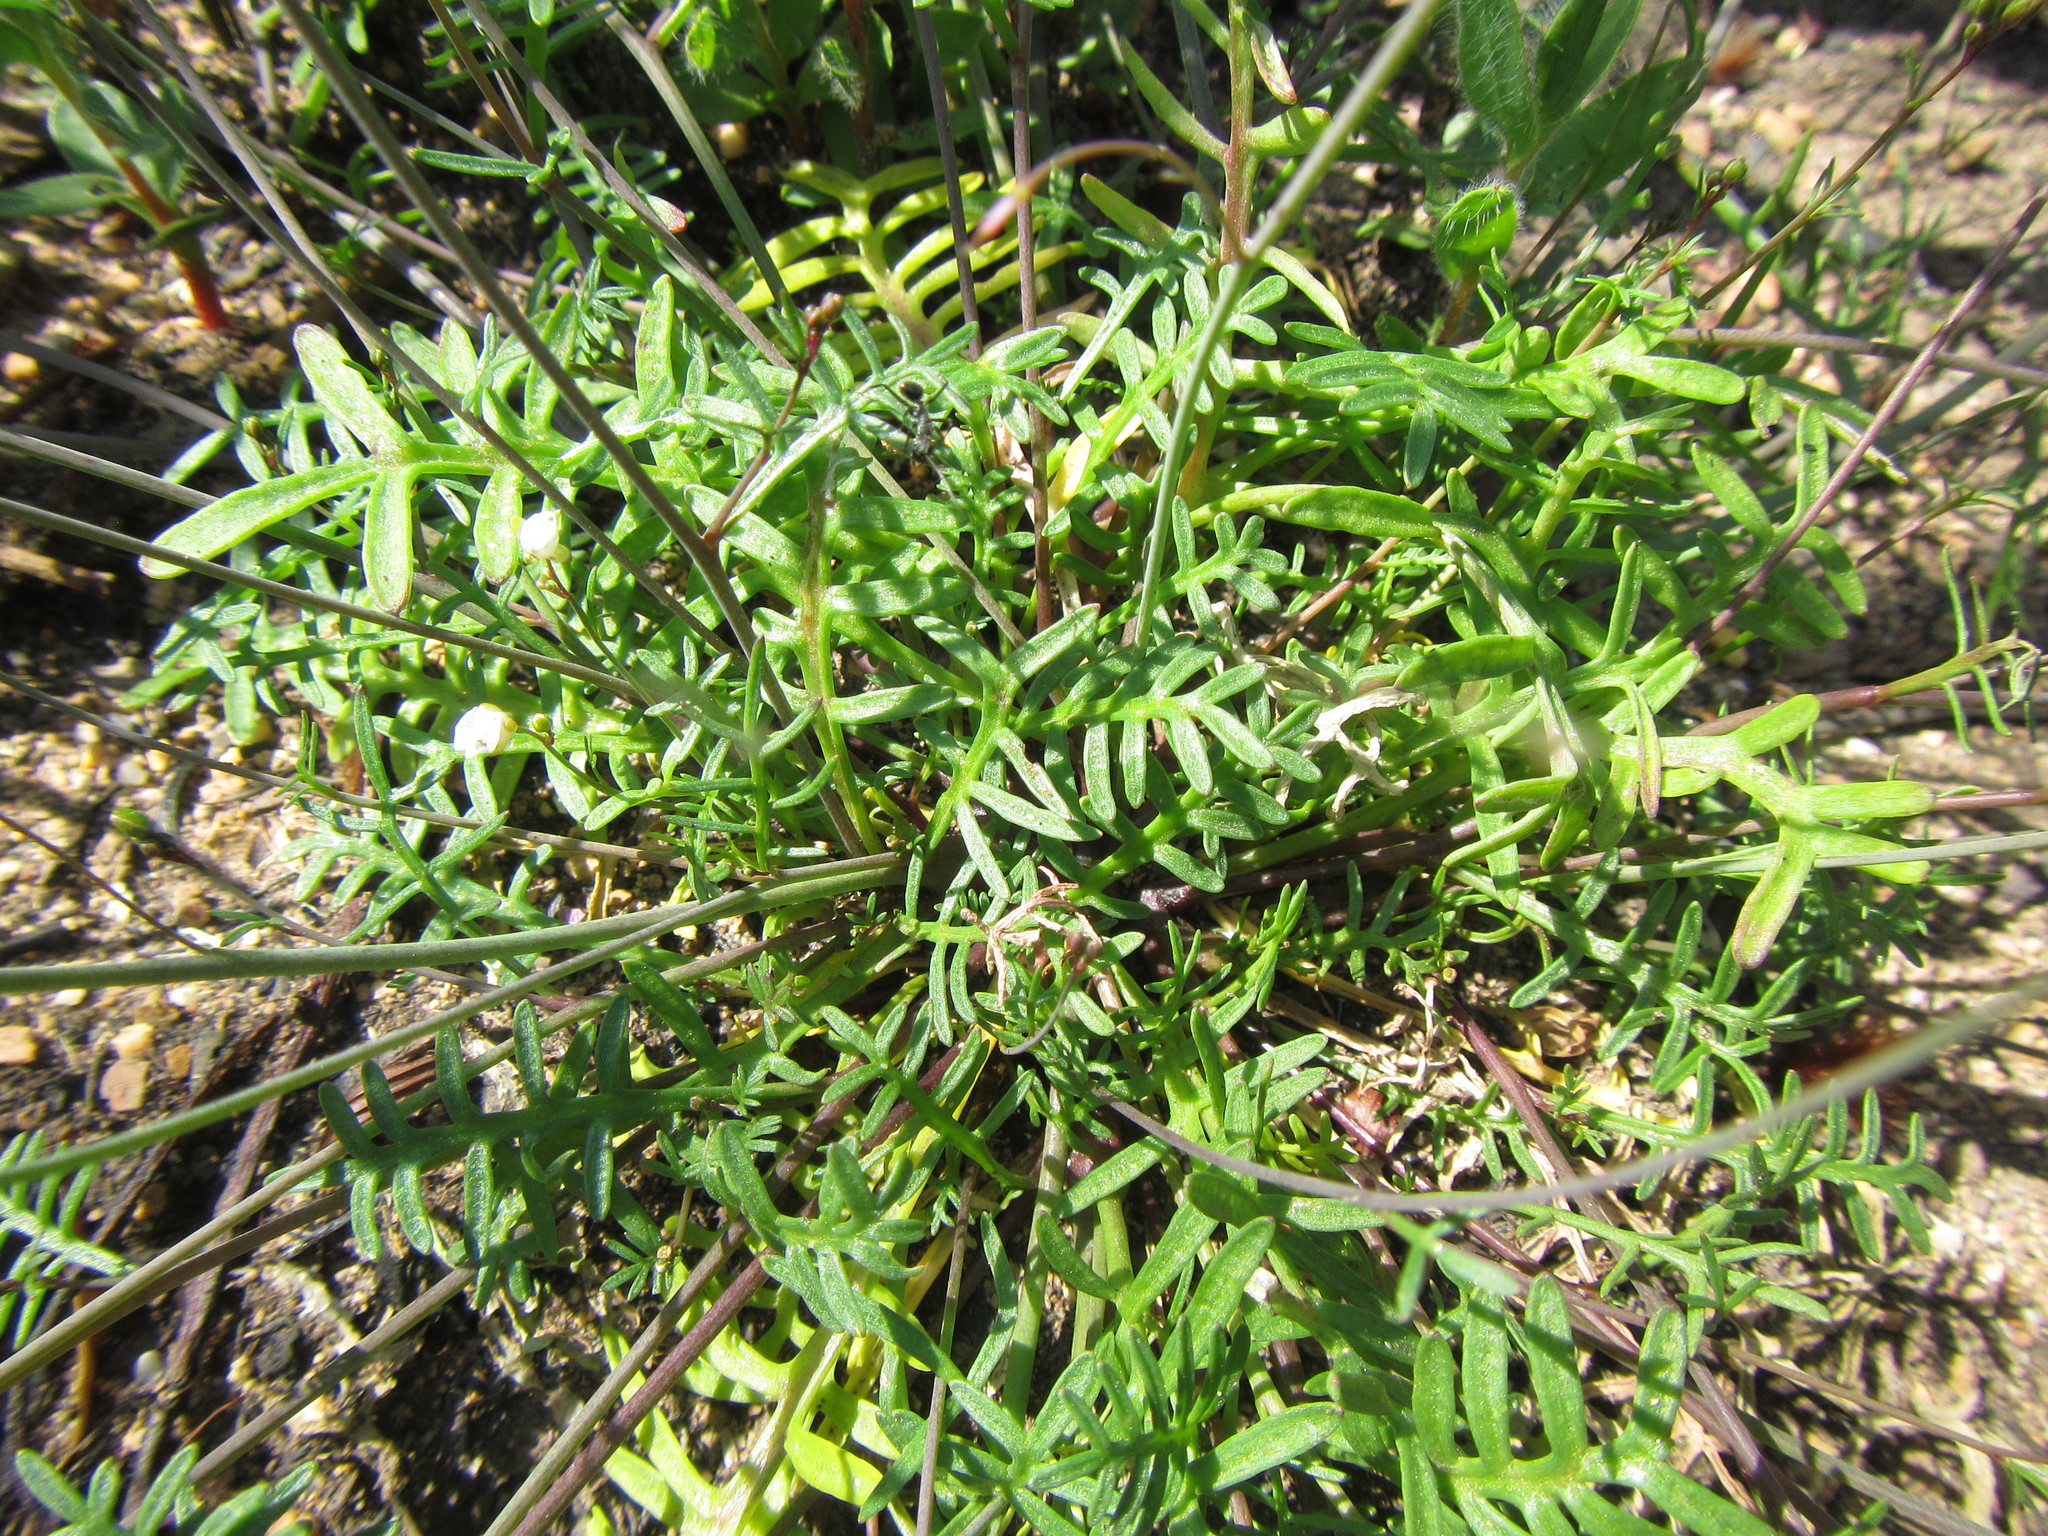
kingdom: Plantae
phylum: Tracheophyta
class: Magnoliopsida
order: Brassicales
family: Brassicaceae
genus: Heliophila
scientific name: Heliophila diffusa
